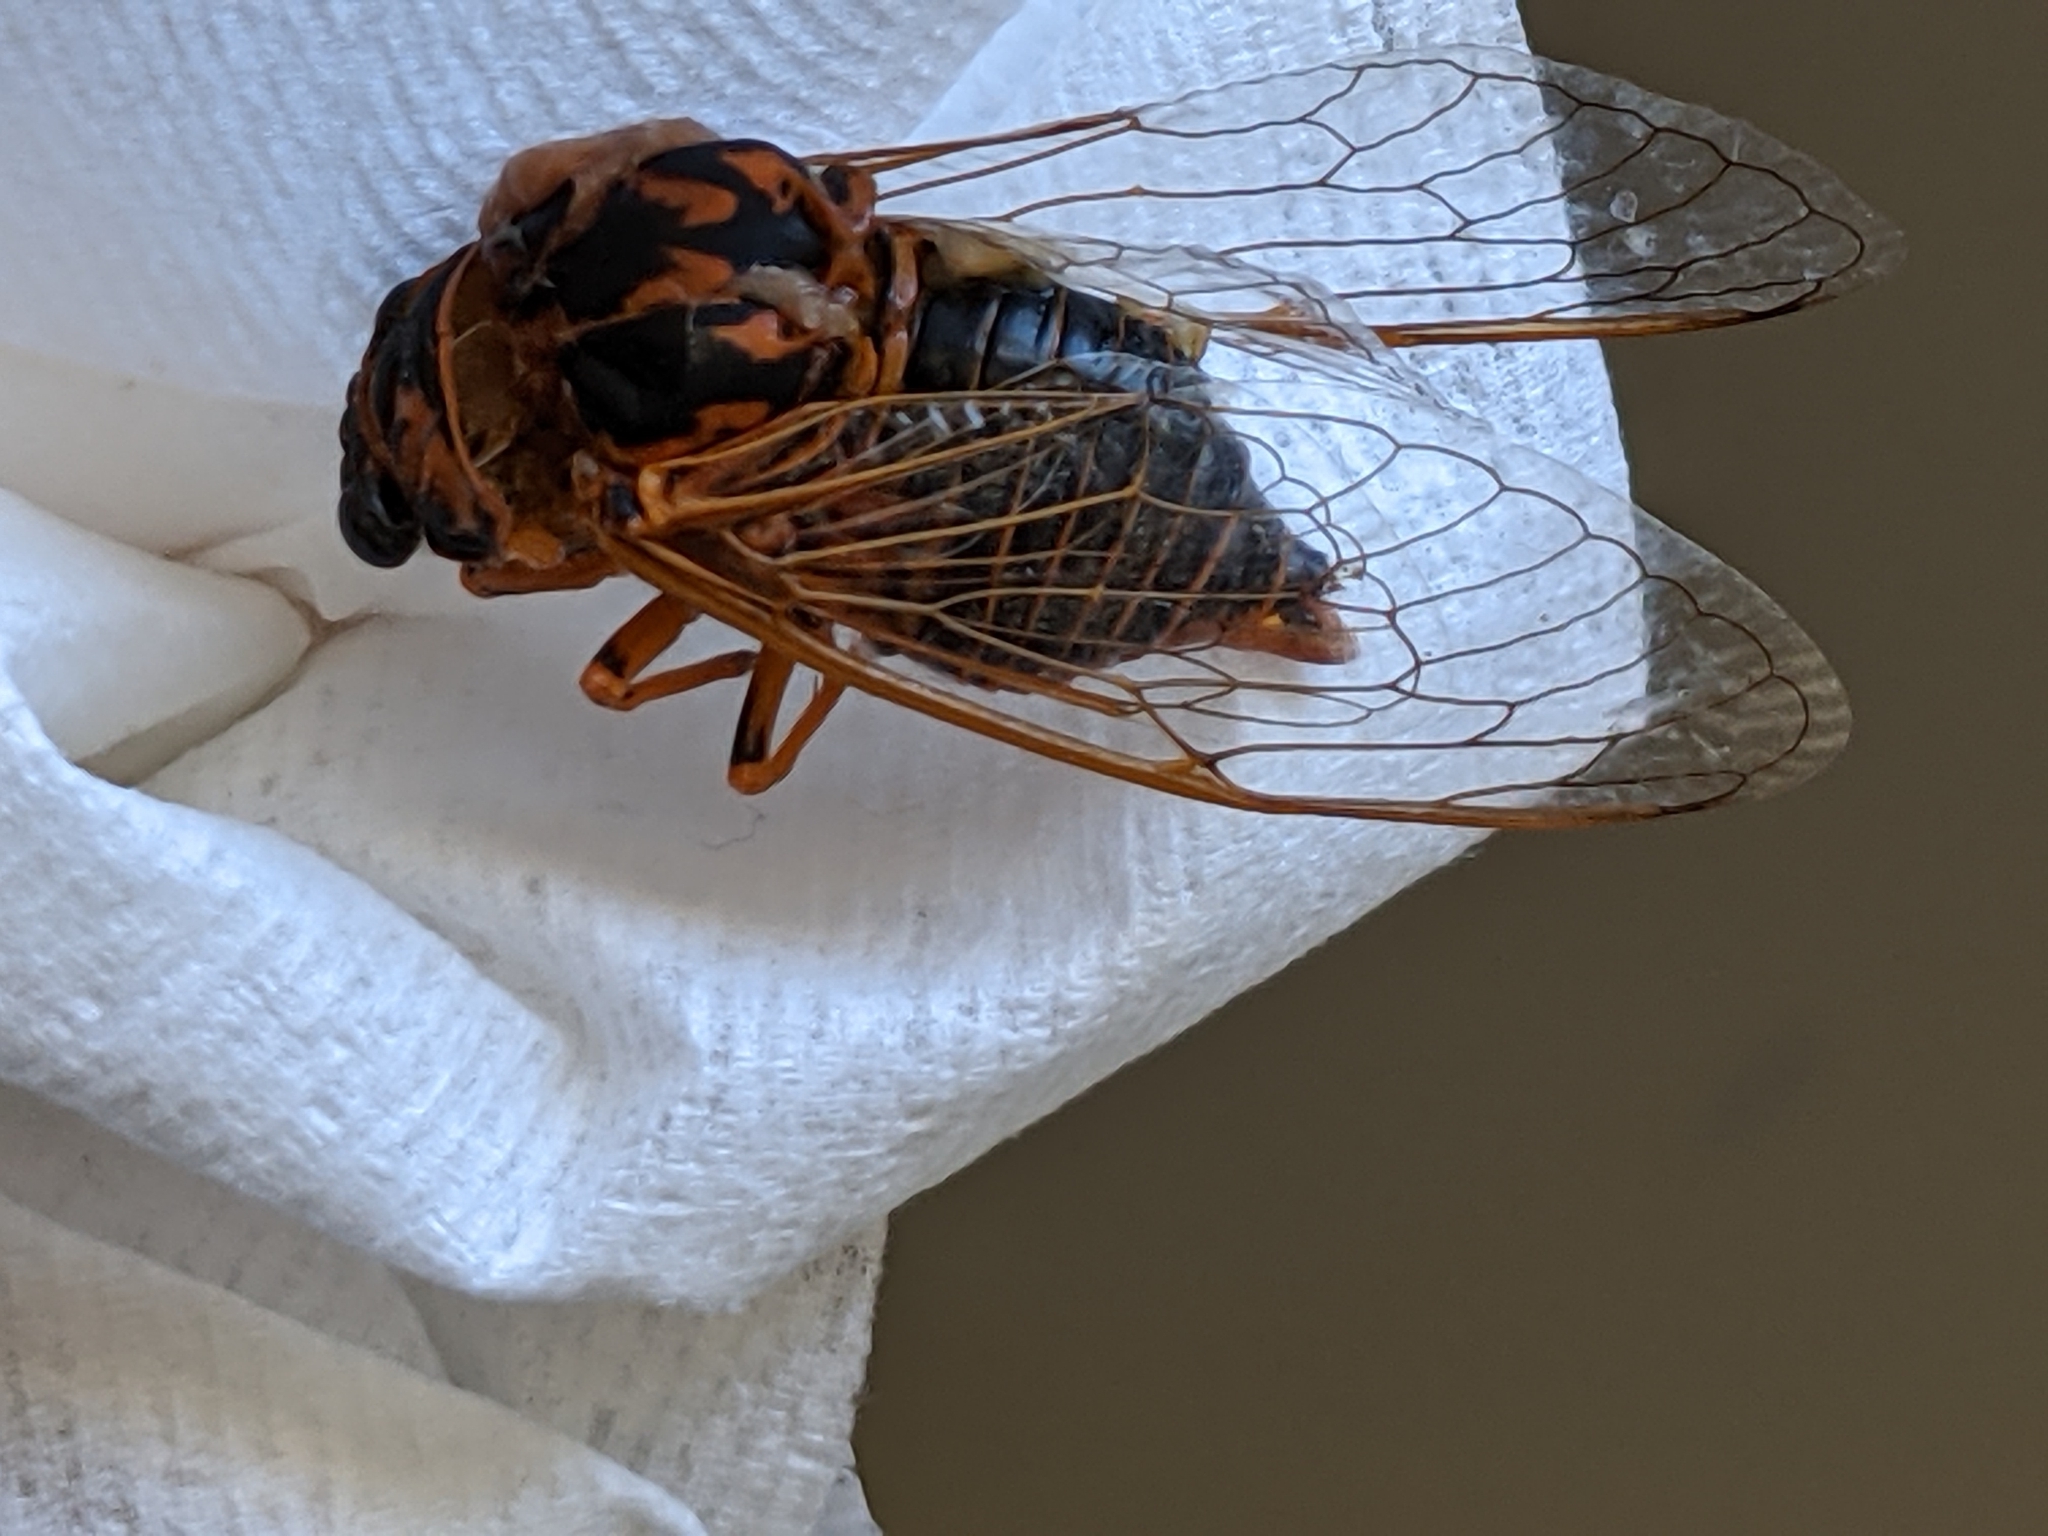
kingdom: Animalia
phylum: Arthropoda
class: Insecta
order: Hemiptera
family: Cicadidae
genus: Okanagana
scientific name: Okanagana arboraria
